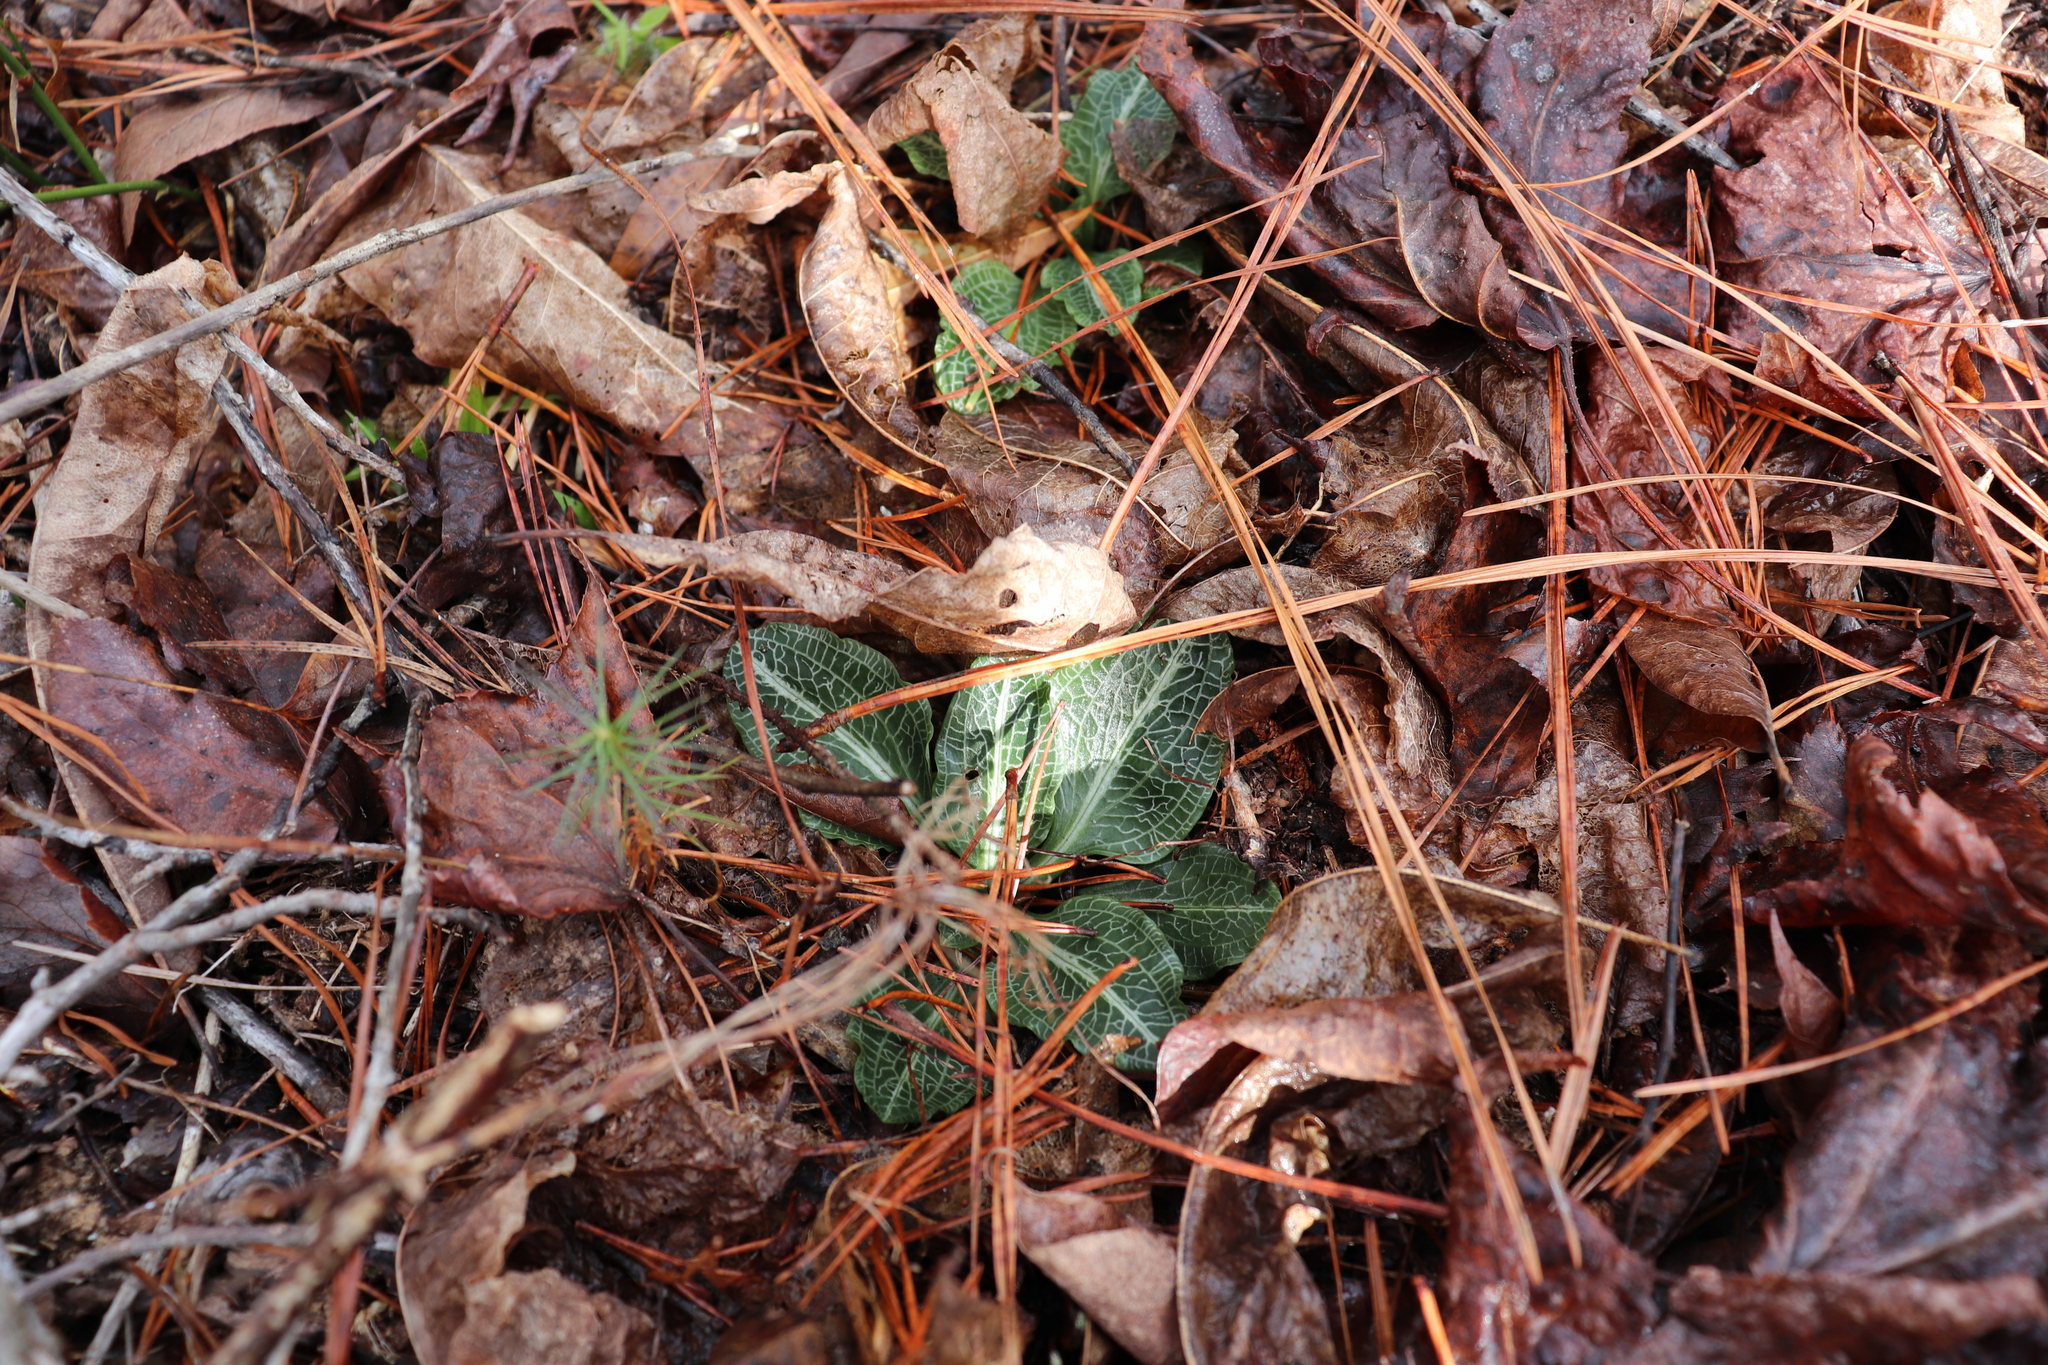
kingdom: Plantae
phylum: Tracheophyta
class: Liliopsida
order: Asparagales
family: Orchidaceae
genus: Goodyera
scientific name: Goodyera pubescens
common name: Downy rattlesnake-plantain
